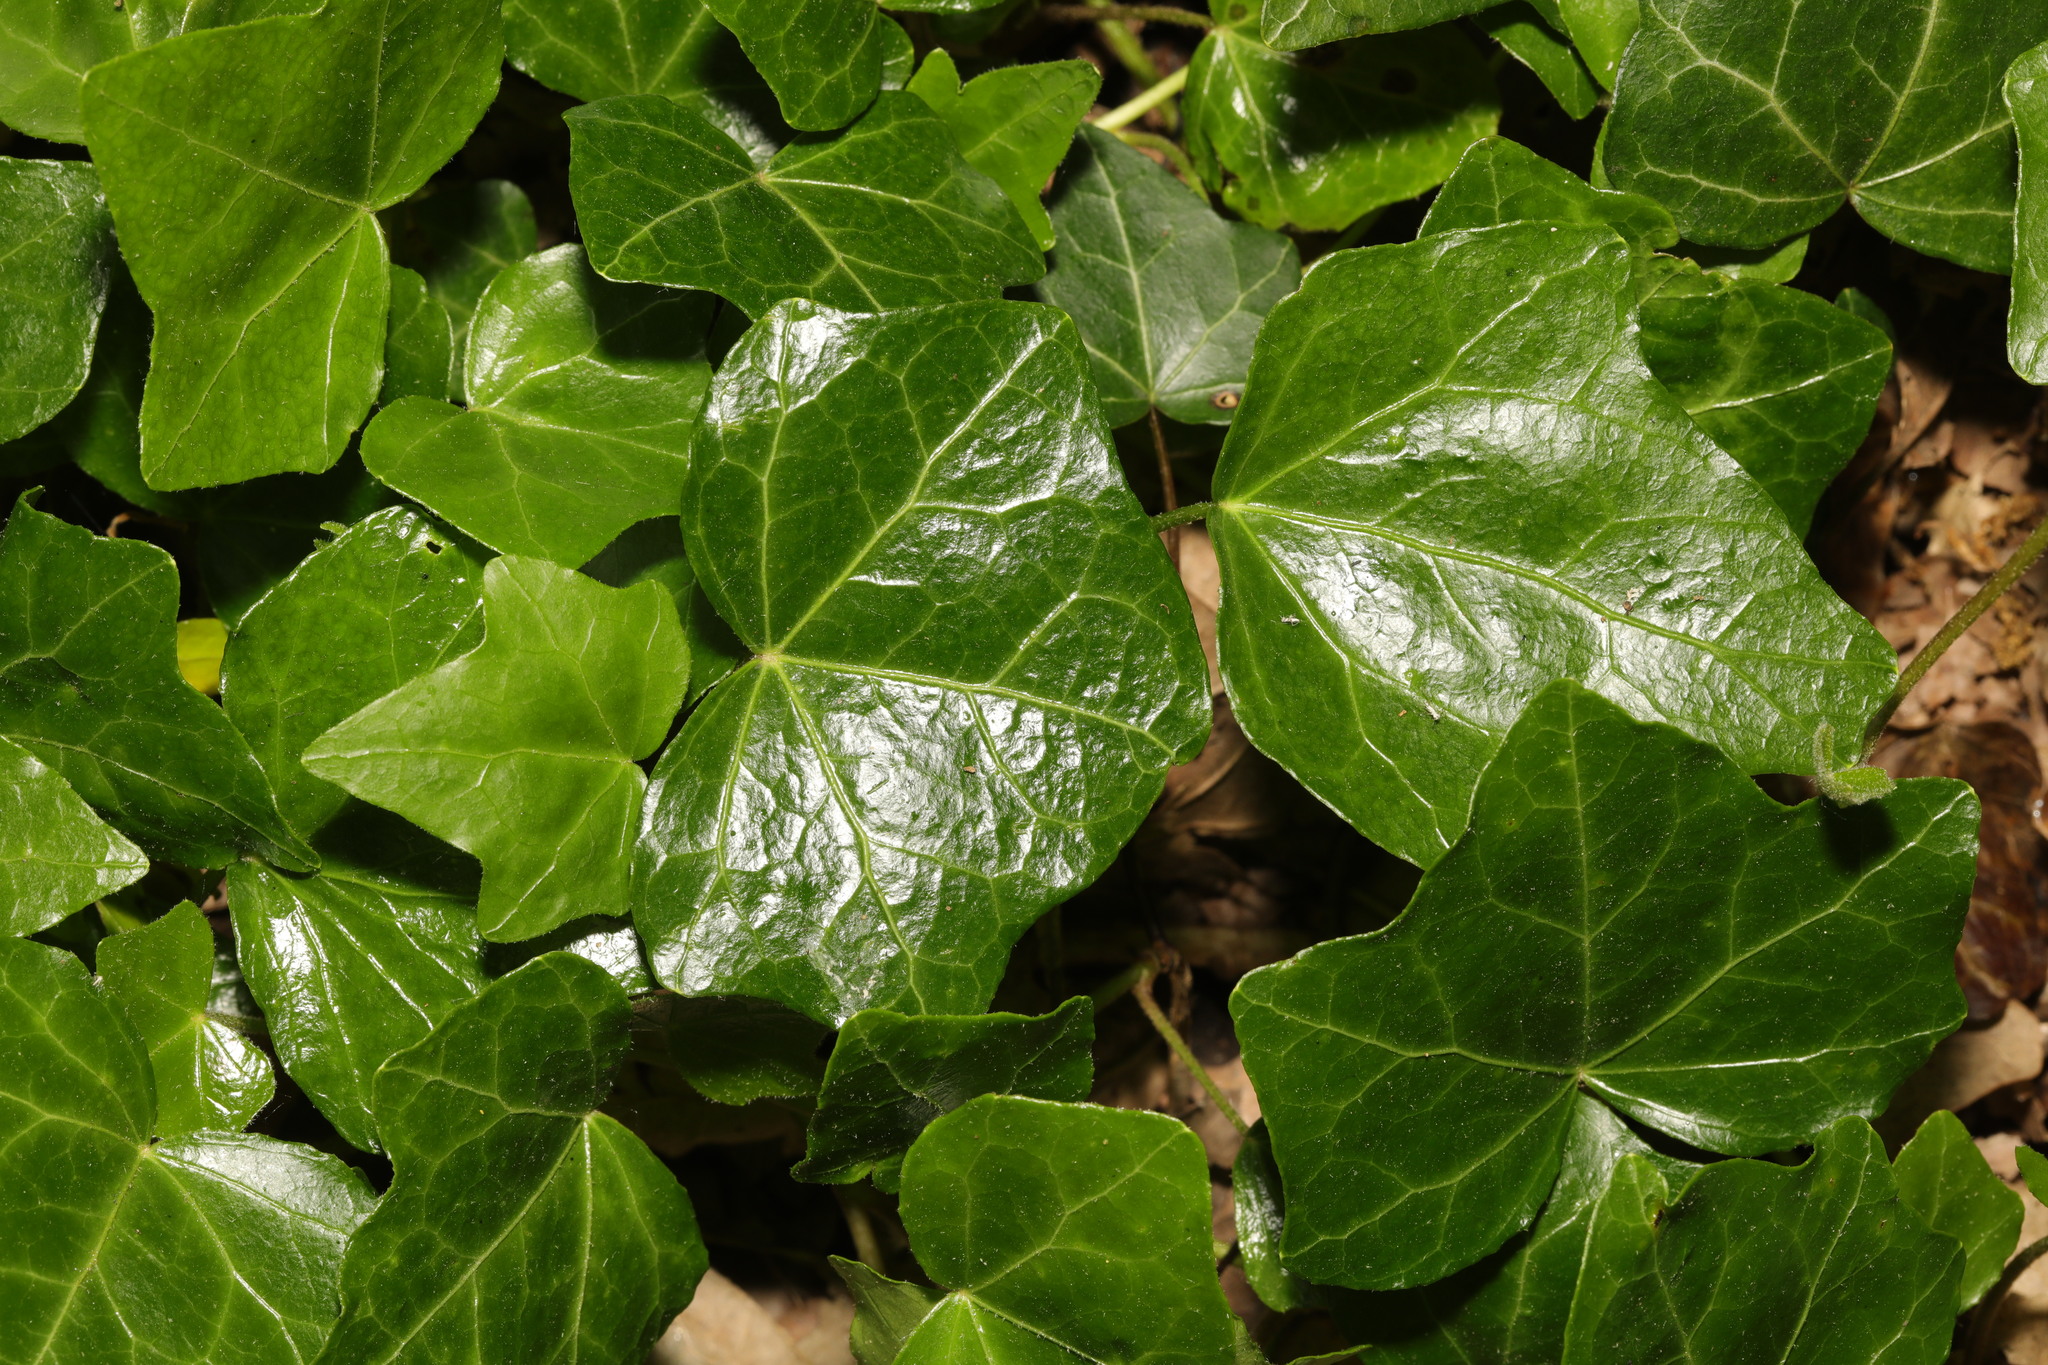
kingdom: Plantae
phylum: Tracheophyta
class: Magnoliopsida
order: Apiales
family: Araliaceae
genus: Hedera
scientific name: Hedera helix
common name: Ivy
